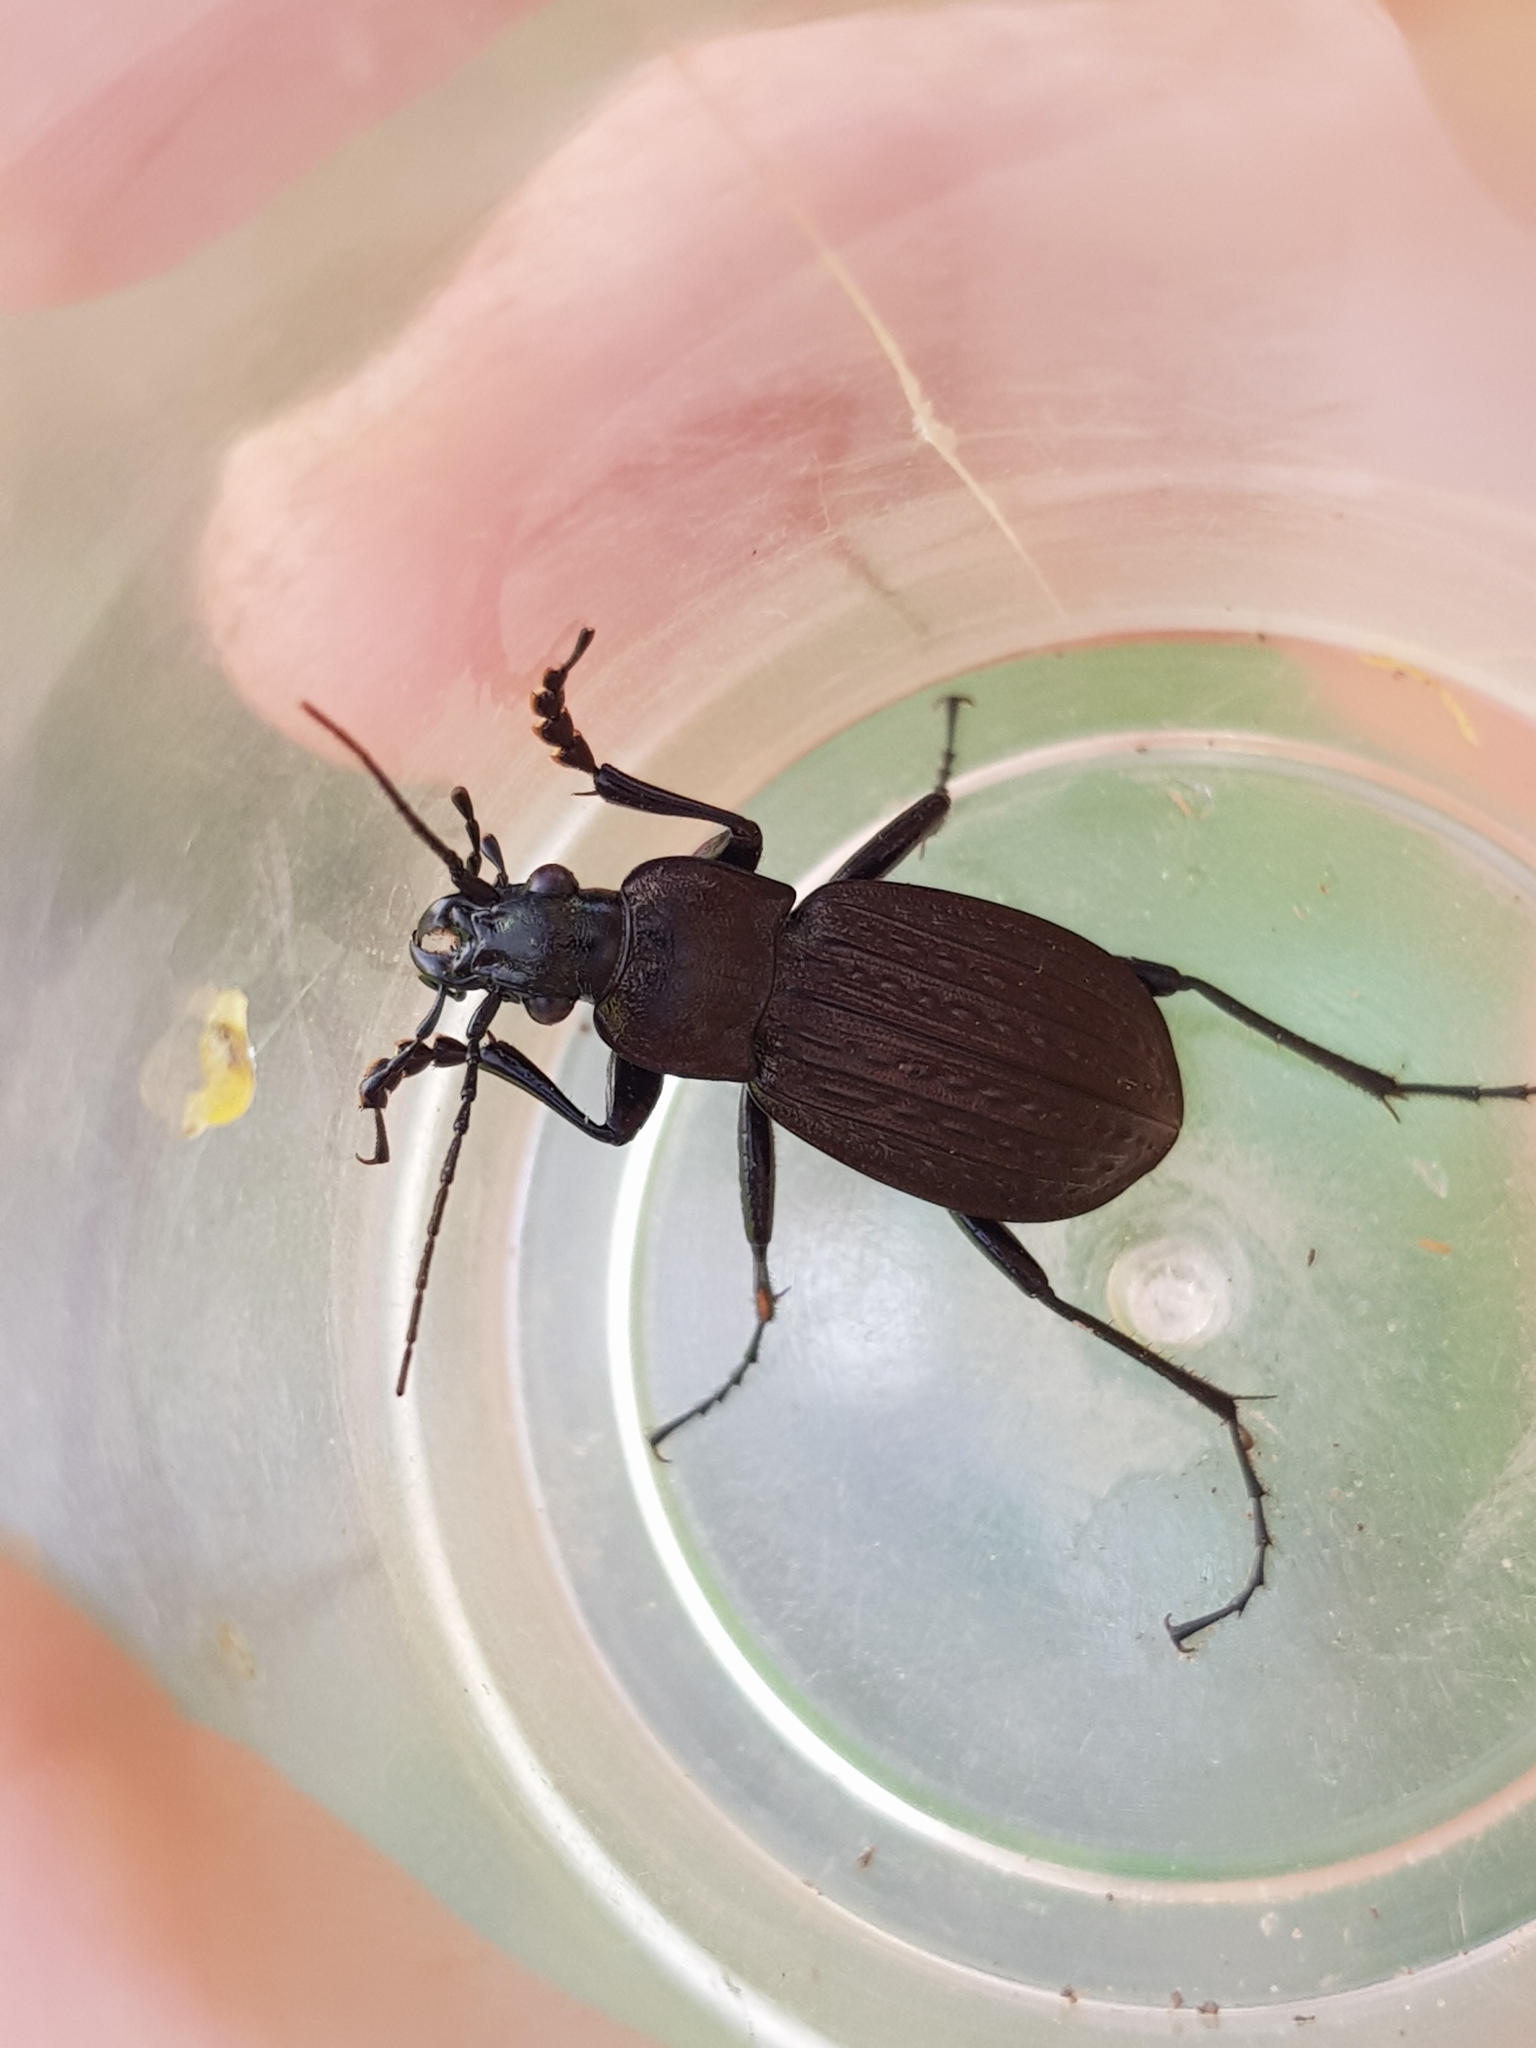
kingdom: Animalia
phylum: Arthropoda
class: Insecta
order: Coleoptera
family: Carabidae
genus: Carabus
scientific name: Carabus granulatus
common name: Granulate ground beetle
